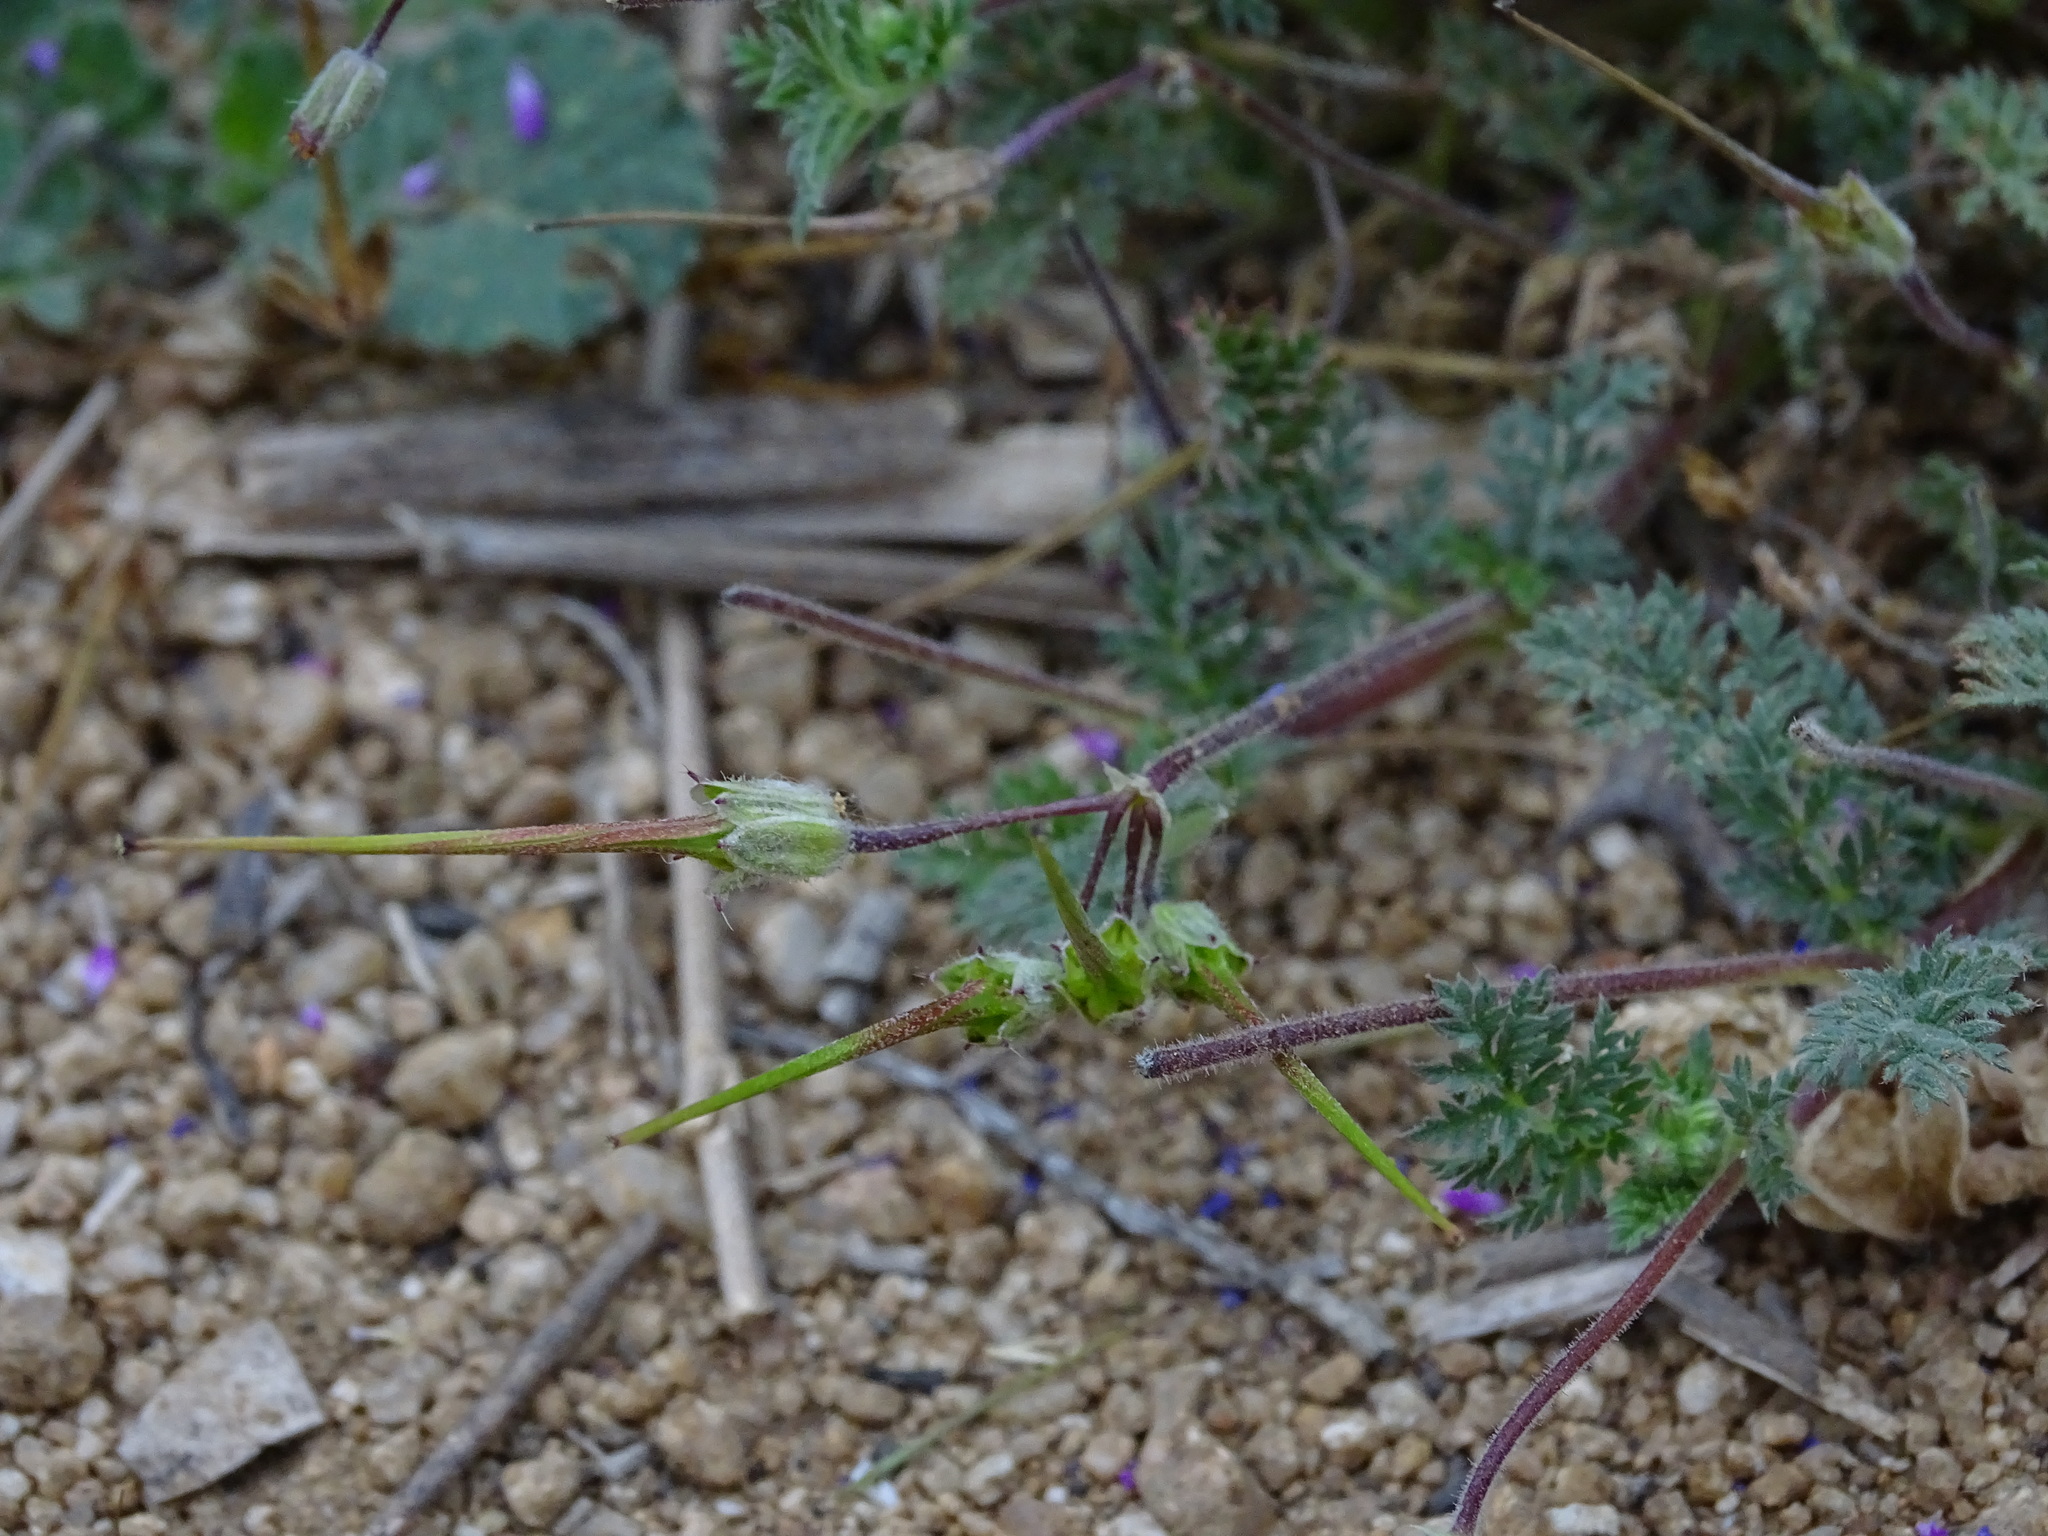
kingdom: Plantae
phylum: Tracheophyta
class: Magnoliopsida
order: Geraniales
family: Geraniaceae
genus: Erodium
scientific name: Erodium cicutarium
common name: Common stork's-bill
